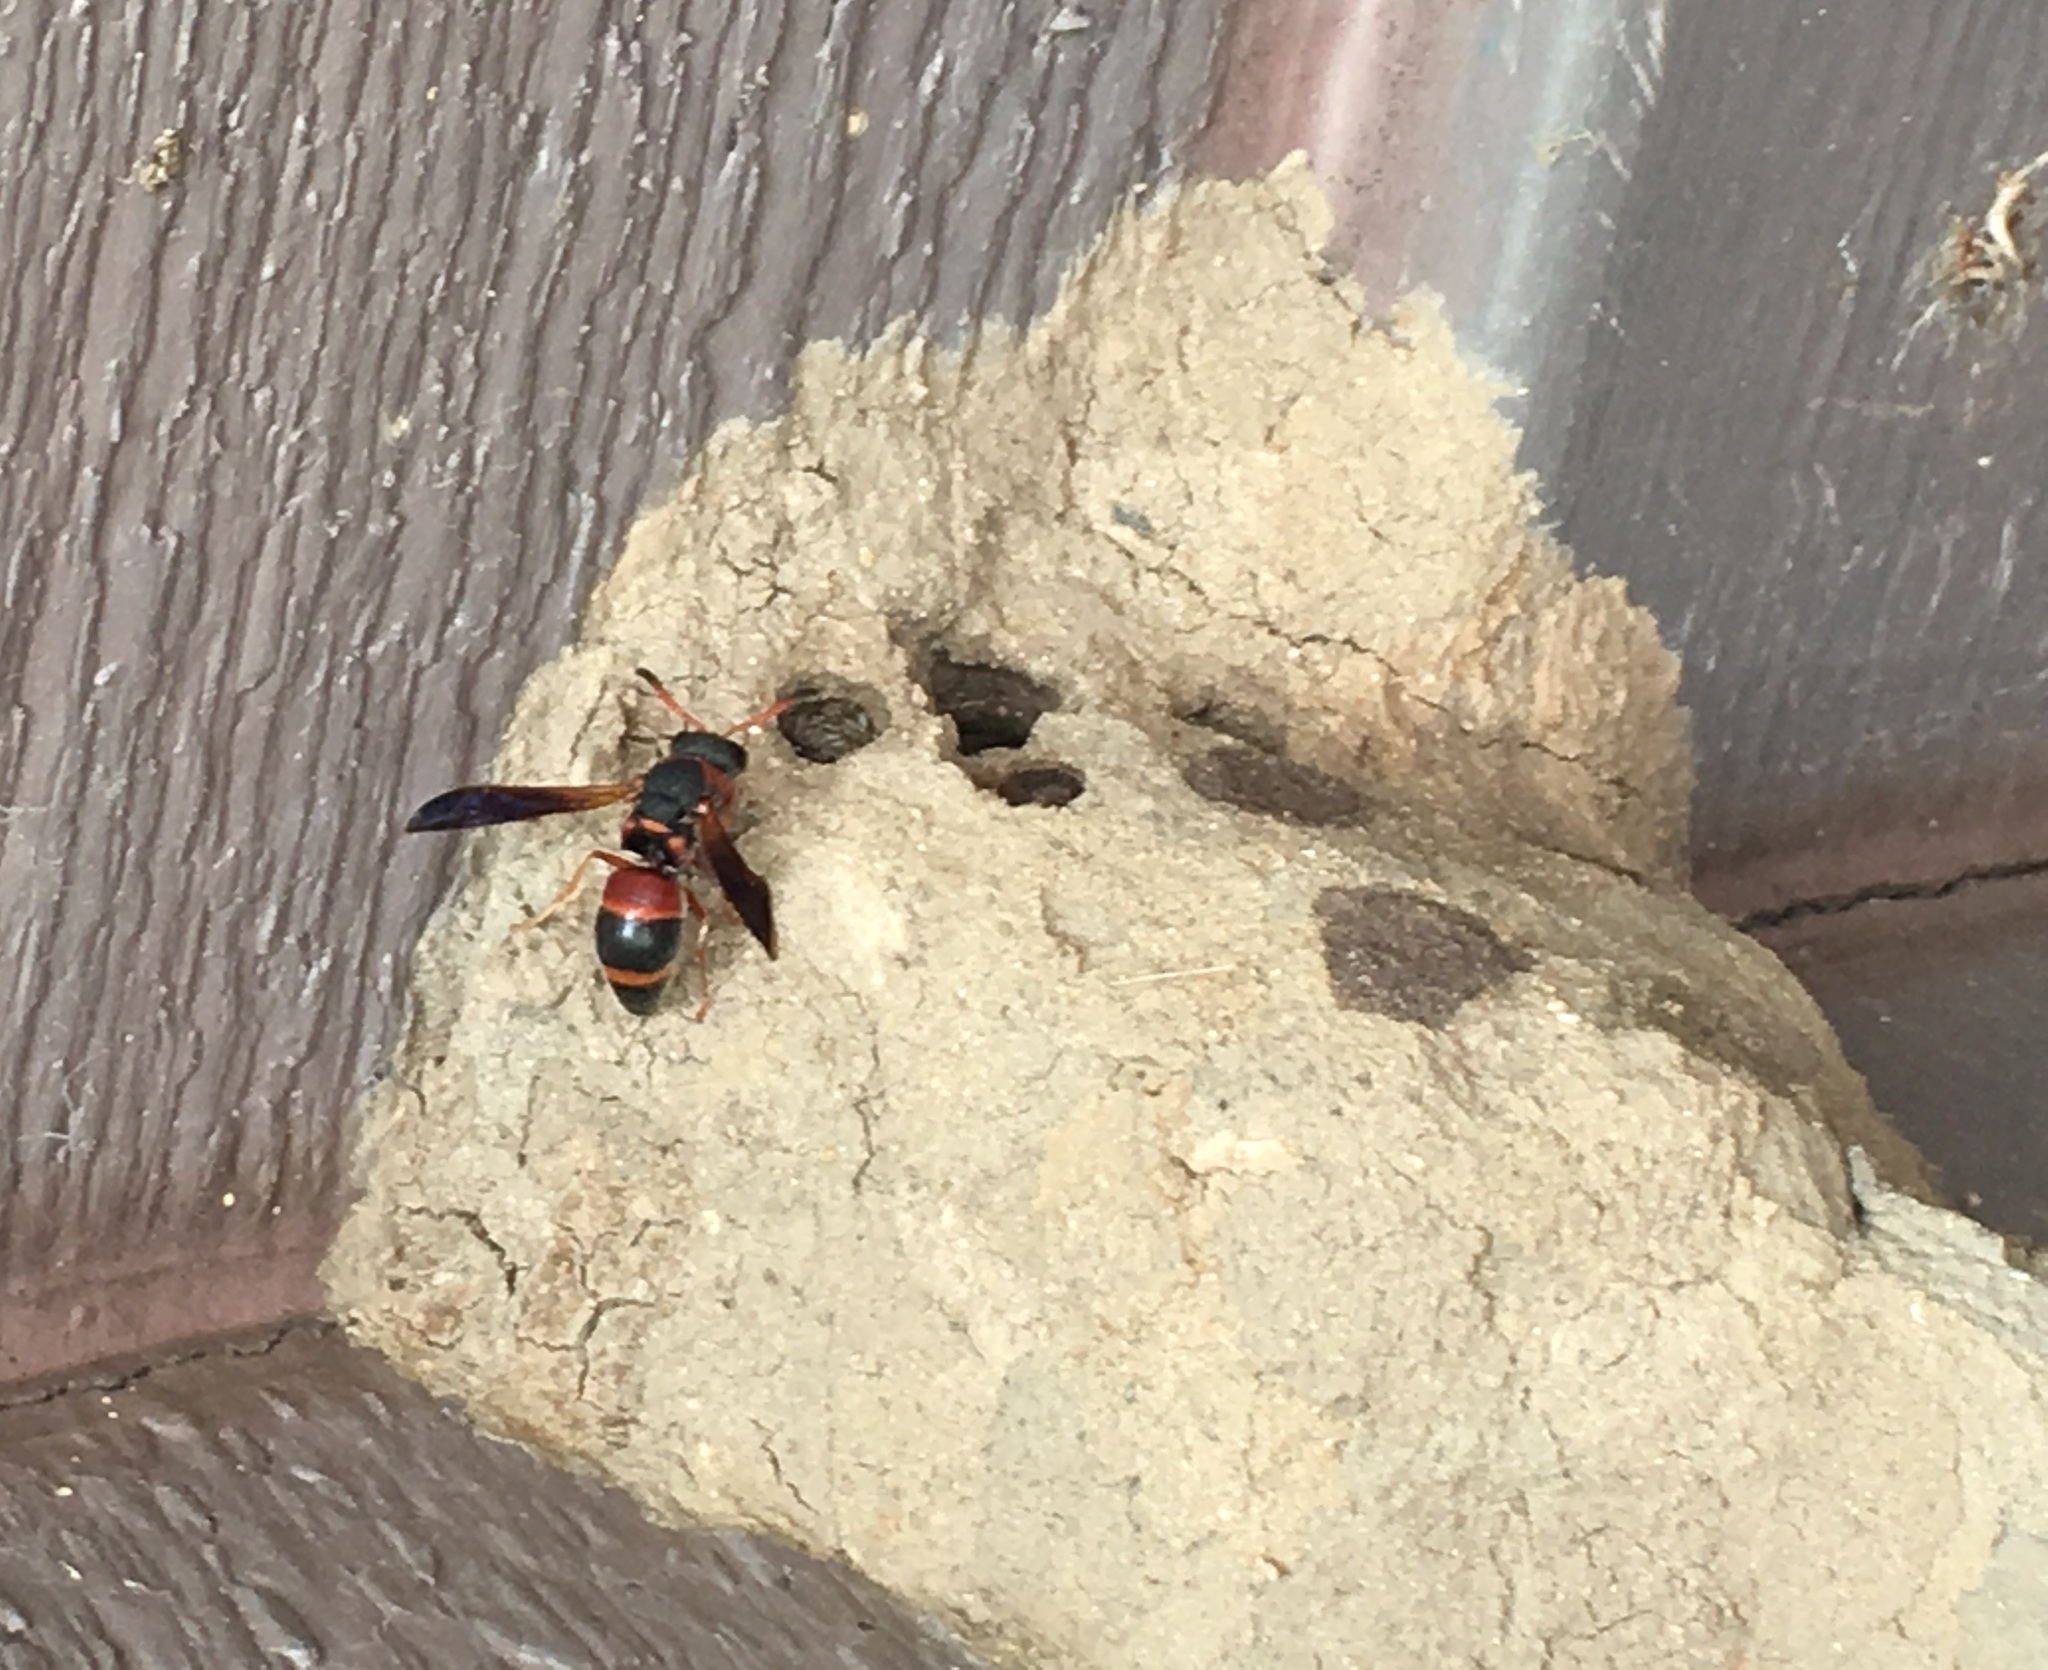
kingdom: Animalia
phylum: Arthropoda
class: Insecta
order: Hymenoptera
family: Eumenidae
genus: Pachodynerus
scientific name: Pachodynerus erynnis
